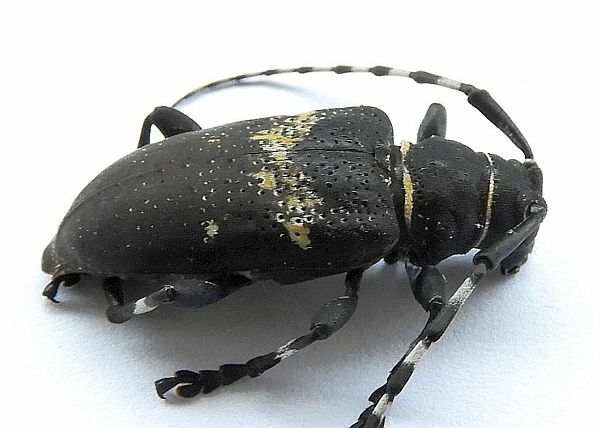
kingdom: Animalia
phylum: Arthropoda
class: Insecta
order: Coleoptera
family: Cerambycidae
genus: Coenopoeus
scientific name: Coenopoeus palmeri
